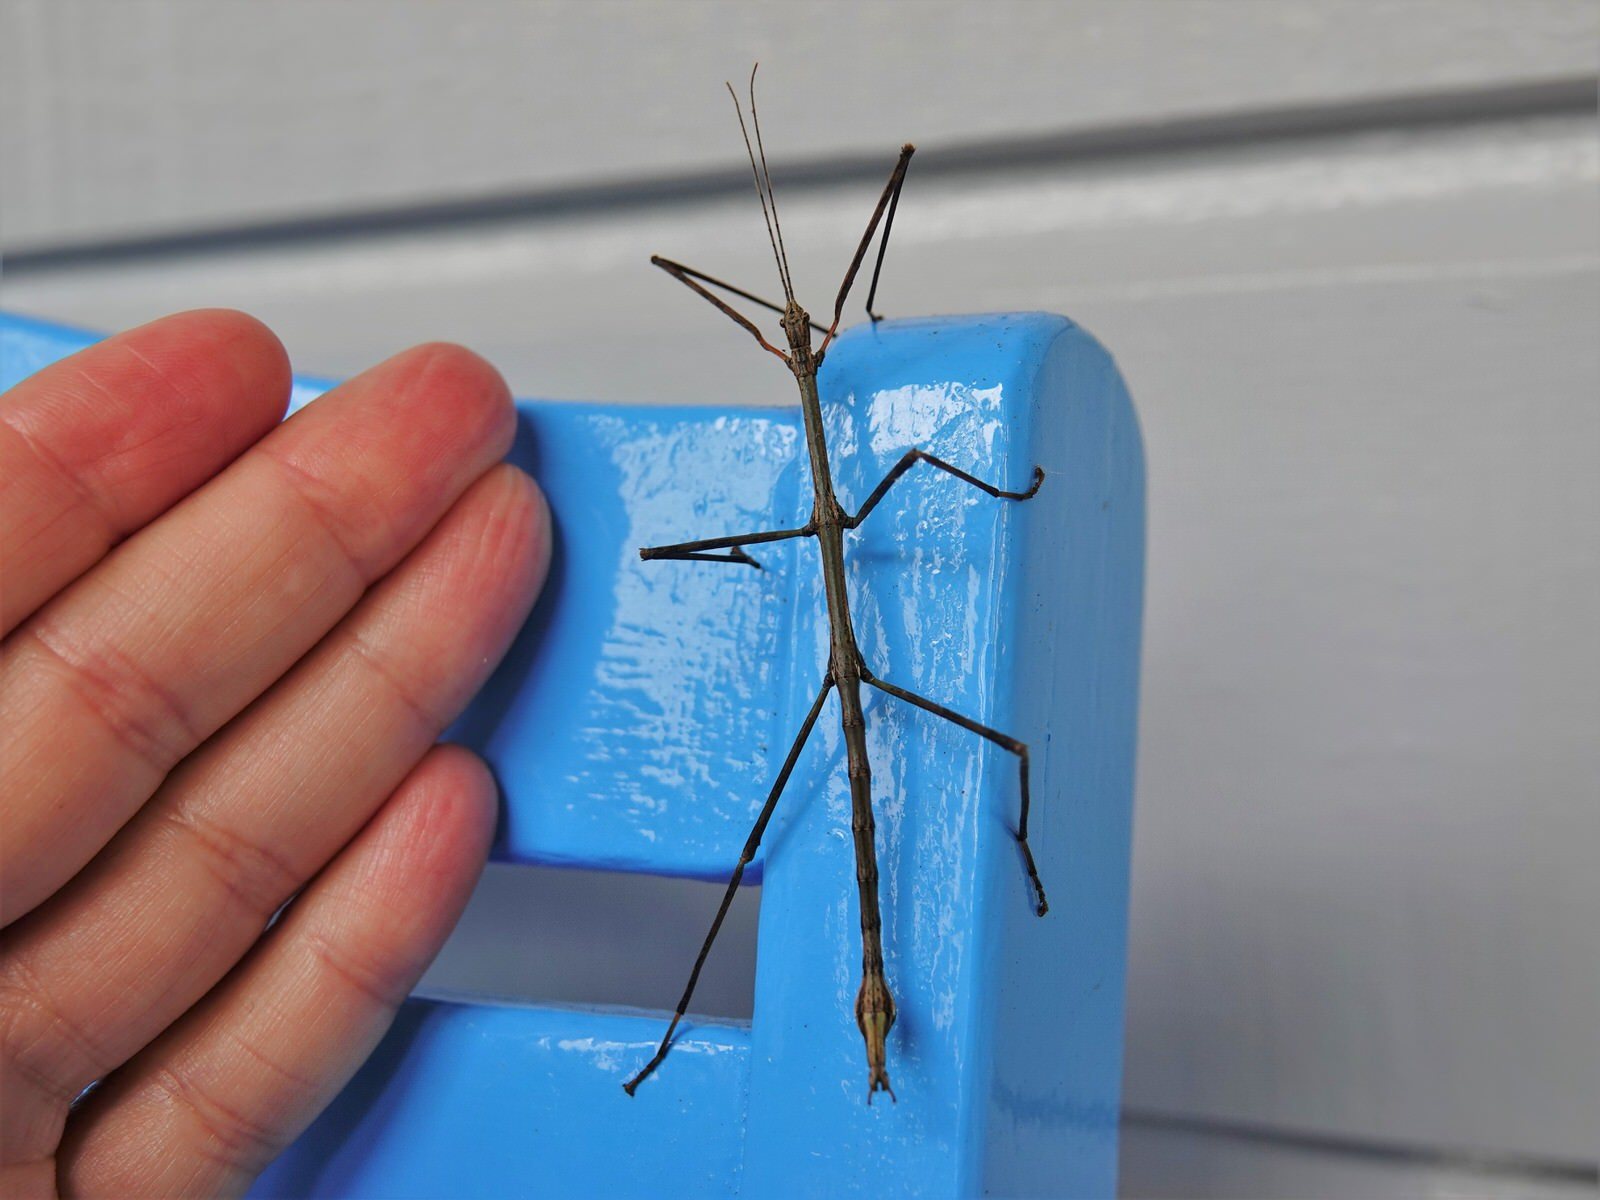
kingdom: Animalia
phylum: Arthropoda
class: Insecta
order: Phasmida
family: Phasmatidae
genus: Clitarchus
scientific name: Clitarchus hookeri
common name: Smooth stick insect
